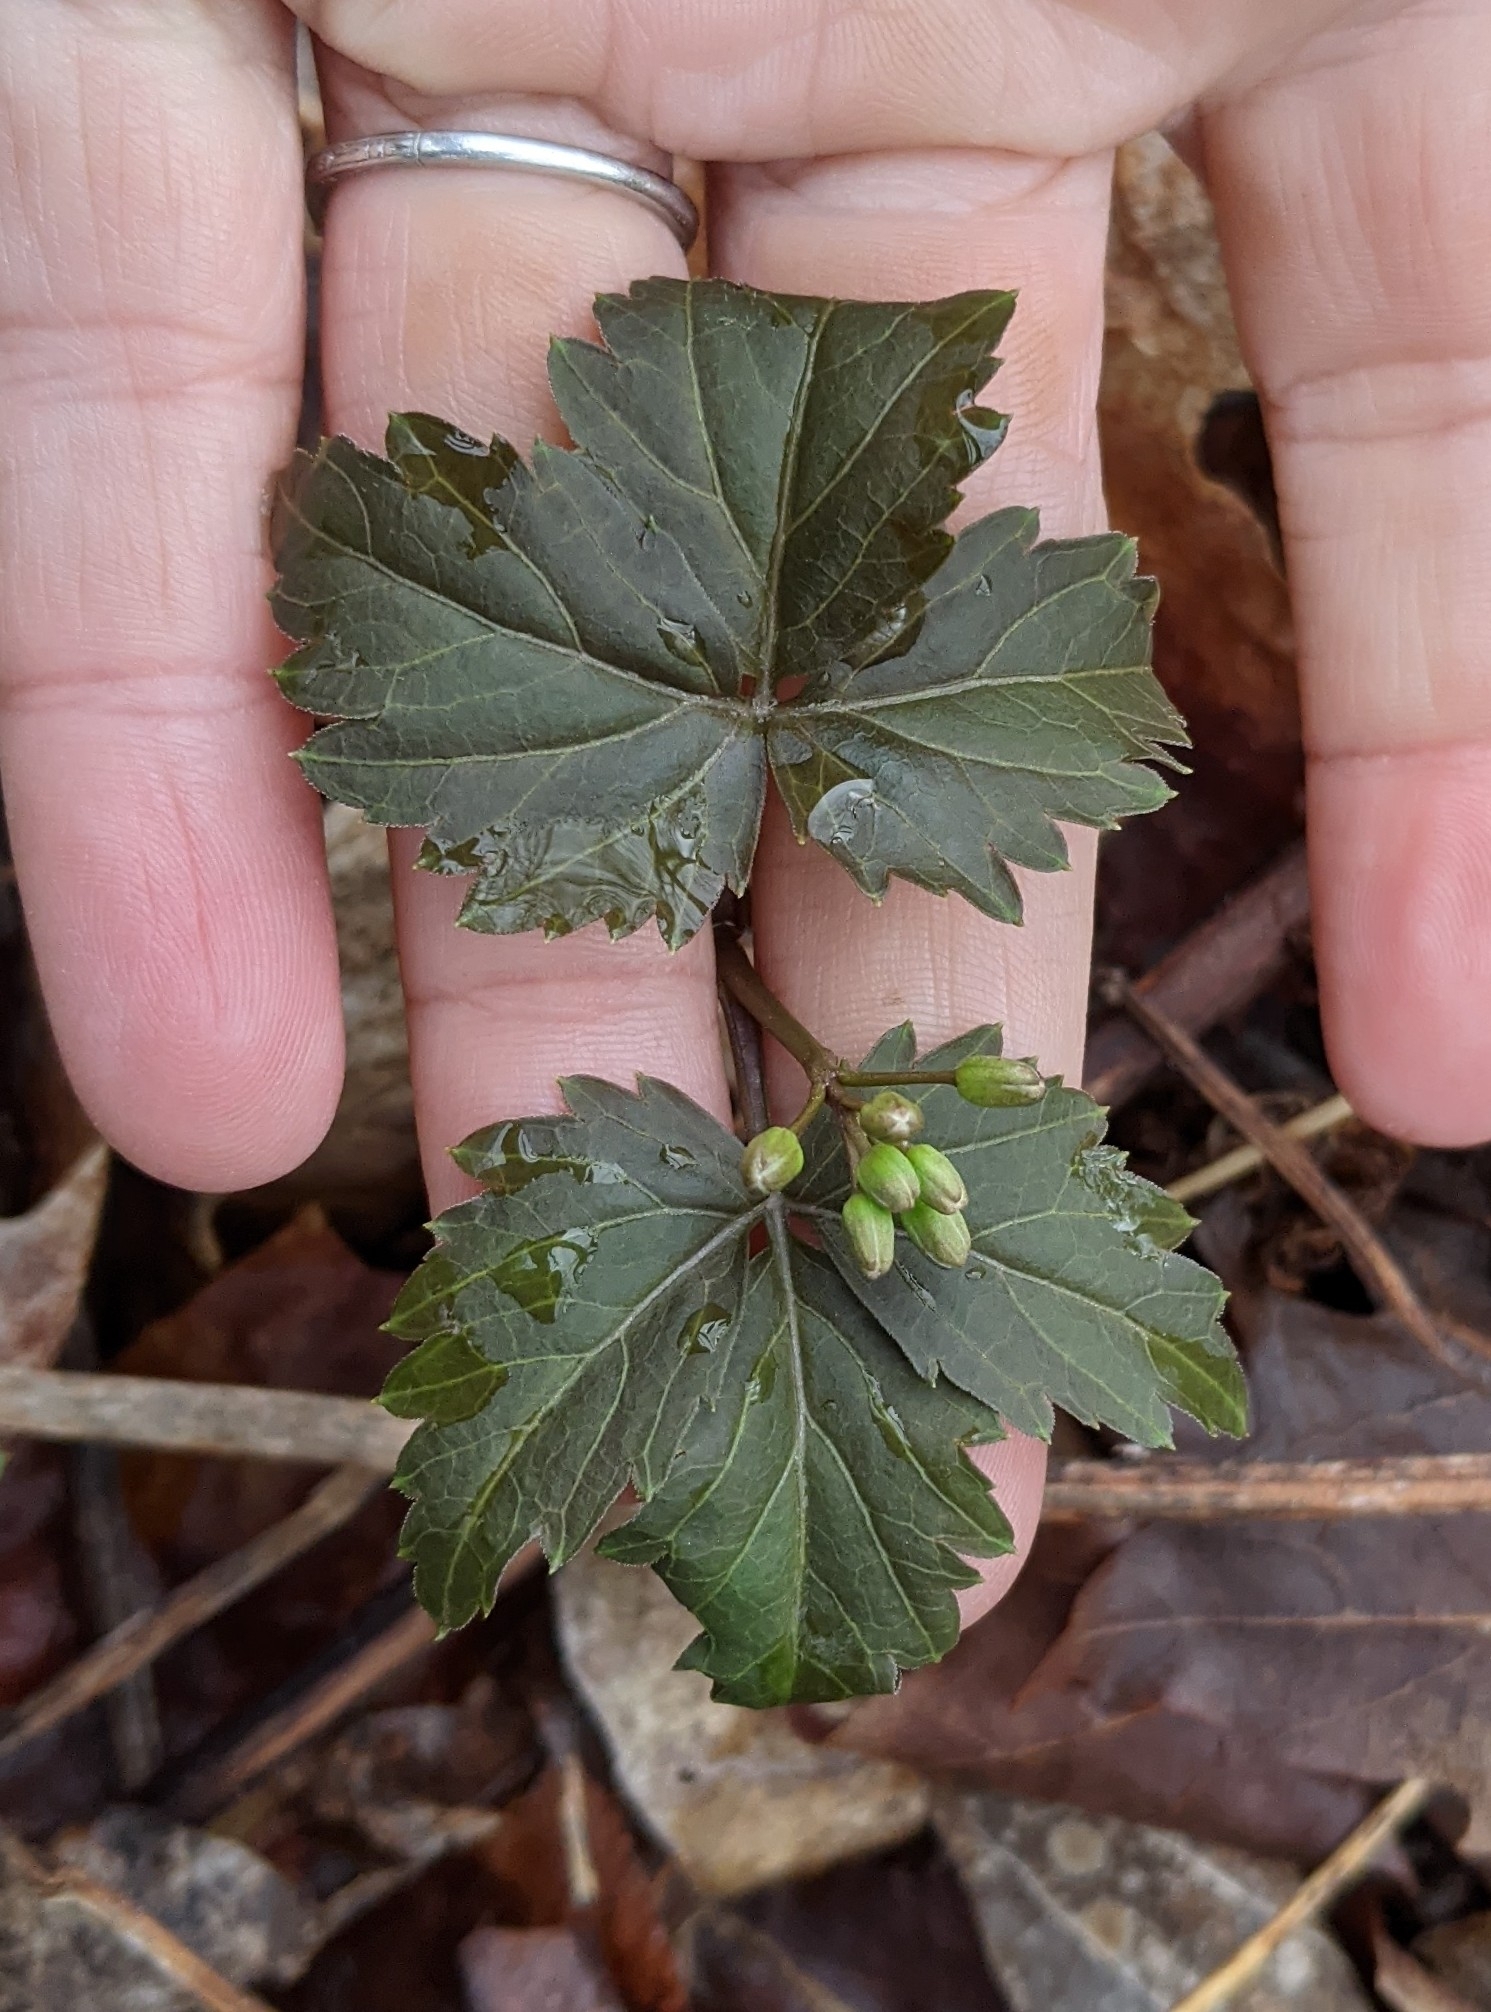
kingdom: Plantae
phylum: Tracheophyta
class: Magnoliopsida
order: Brassicales
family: Brassicaceae
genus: Cardamine
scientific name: Cardamine diphylla
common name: Broad-leaved toothwort
